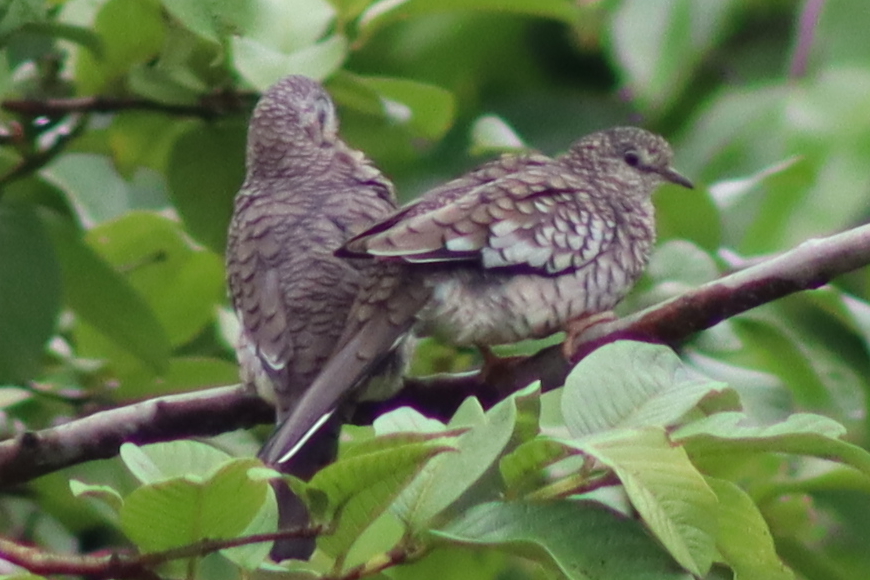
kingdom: Animalia
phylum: Chordata
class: Aves
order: Columbiformes
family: Columbidae
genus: Columbina
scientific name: Columbina squammata
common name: Scaled dove
